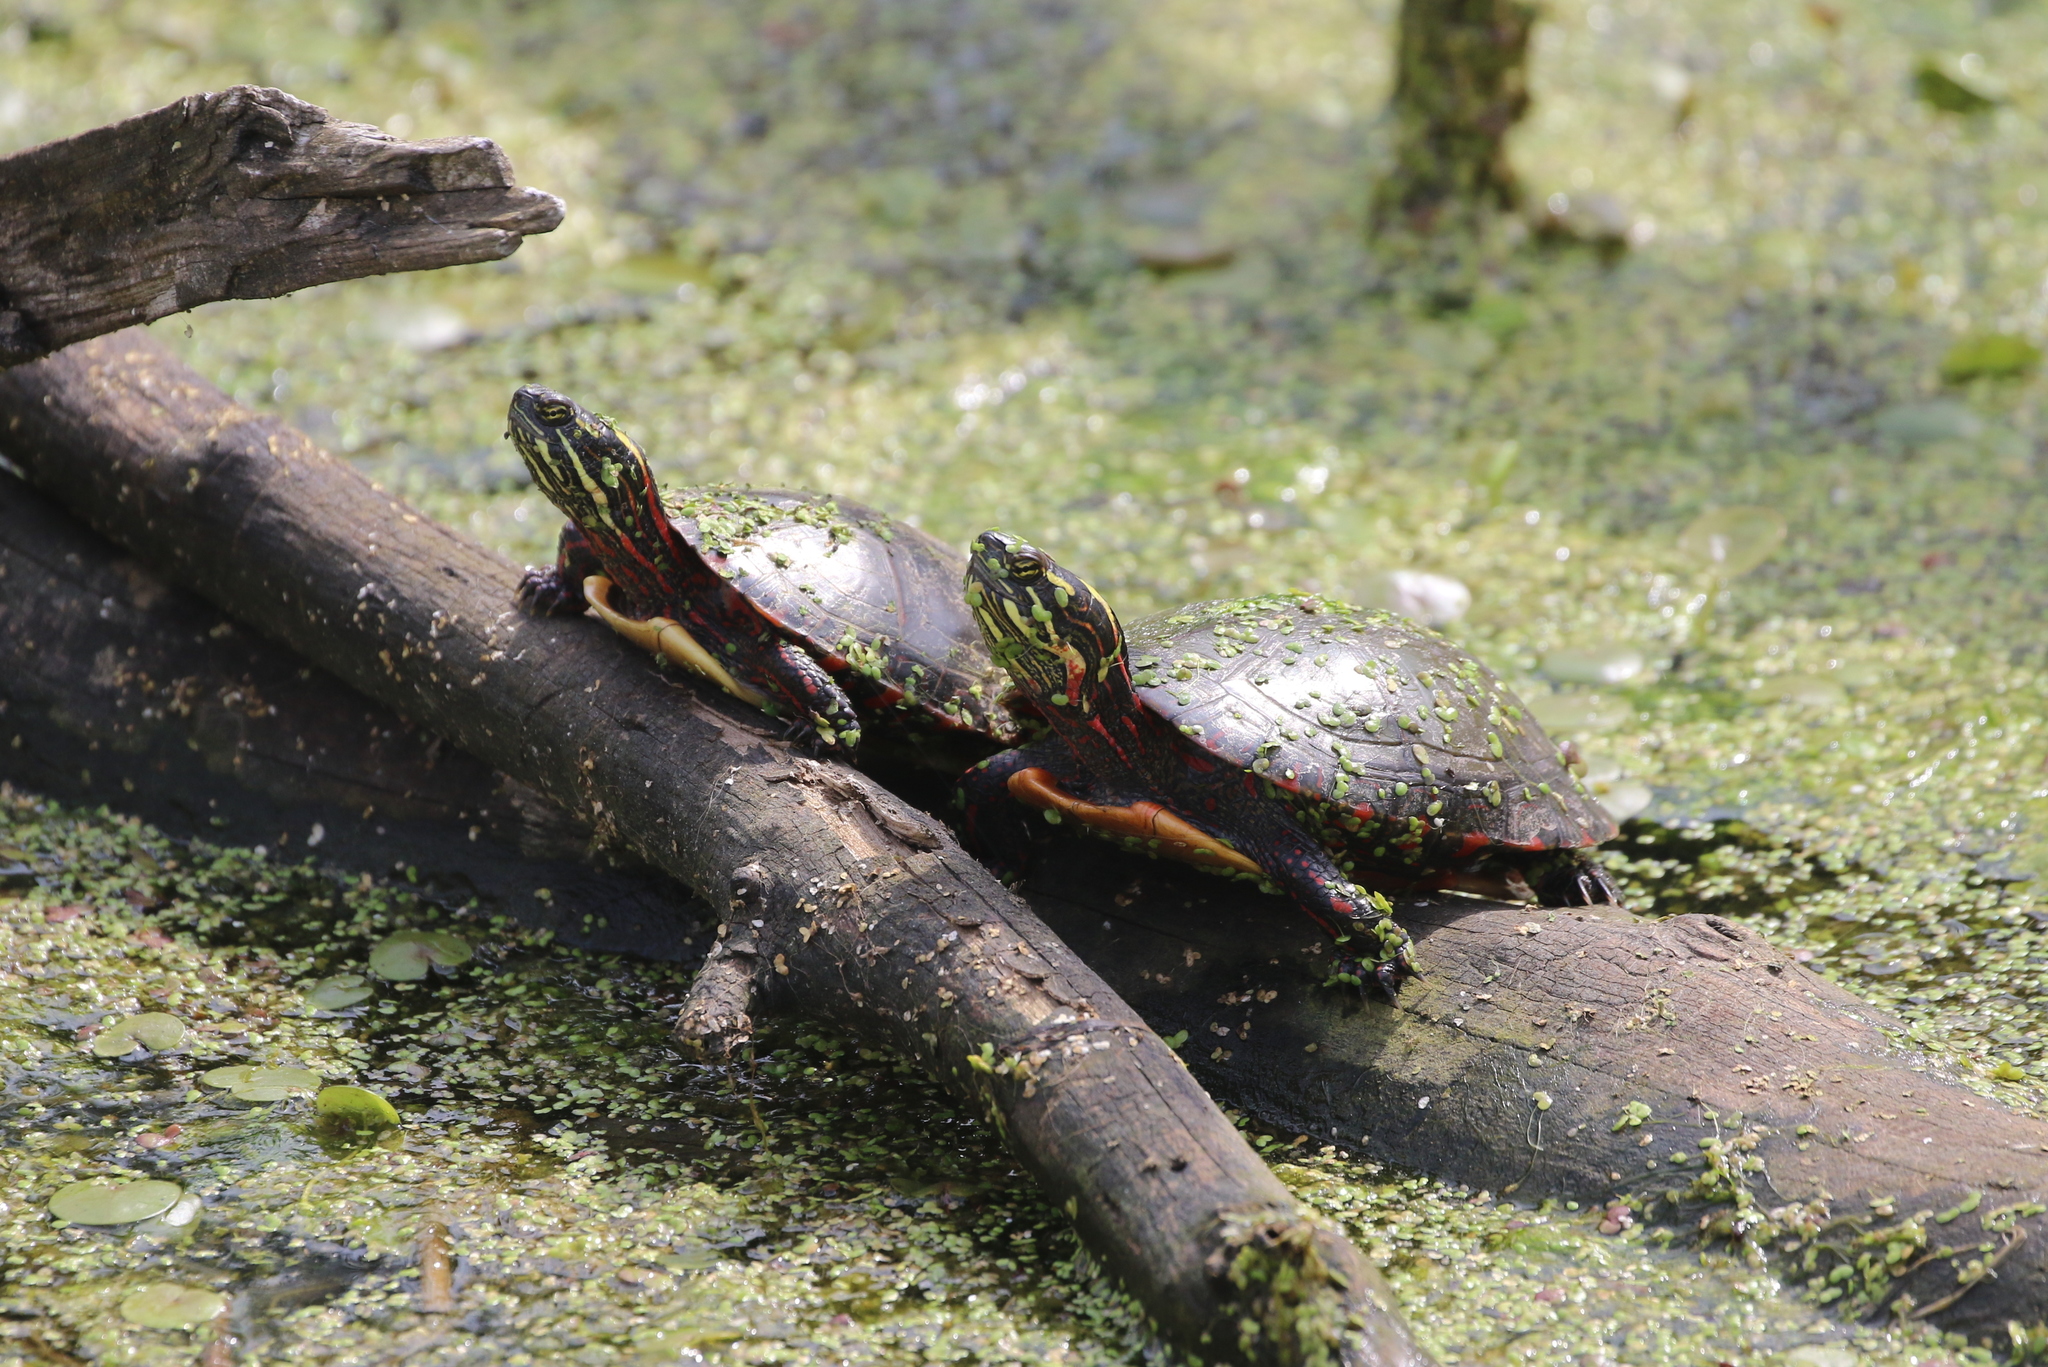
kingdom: Animalia
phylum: Chordata
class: Testudines
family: Emydidae
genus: Chrysemys
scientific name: Chrysemys picta
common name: Painted turtle
